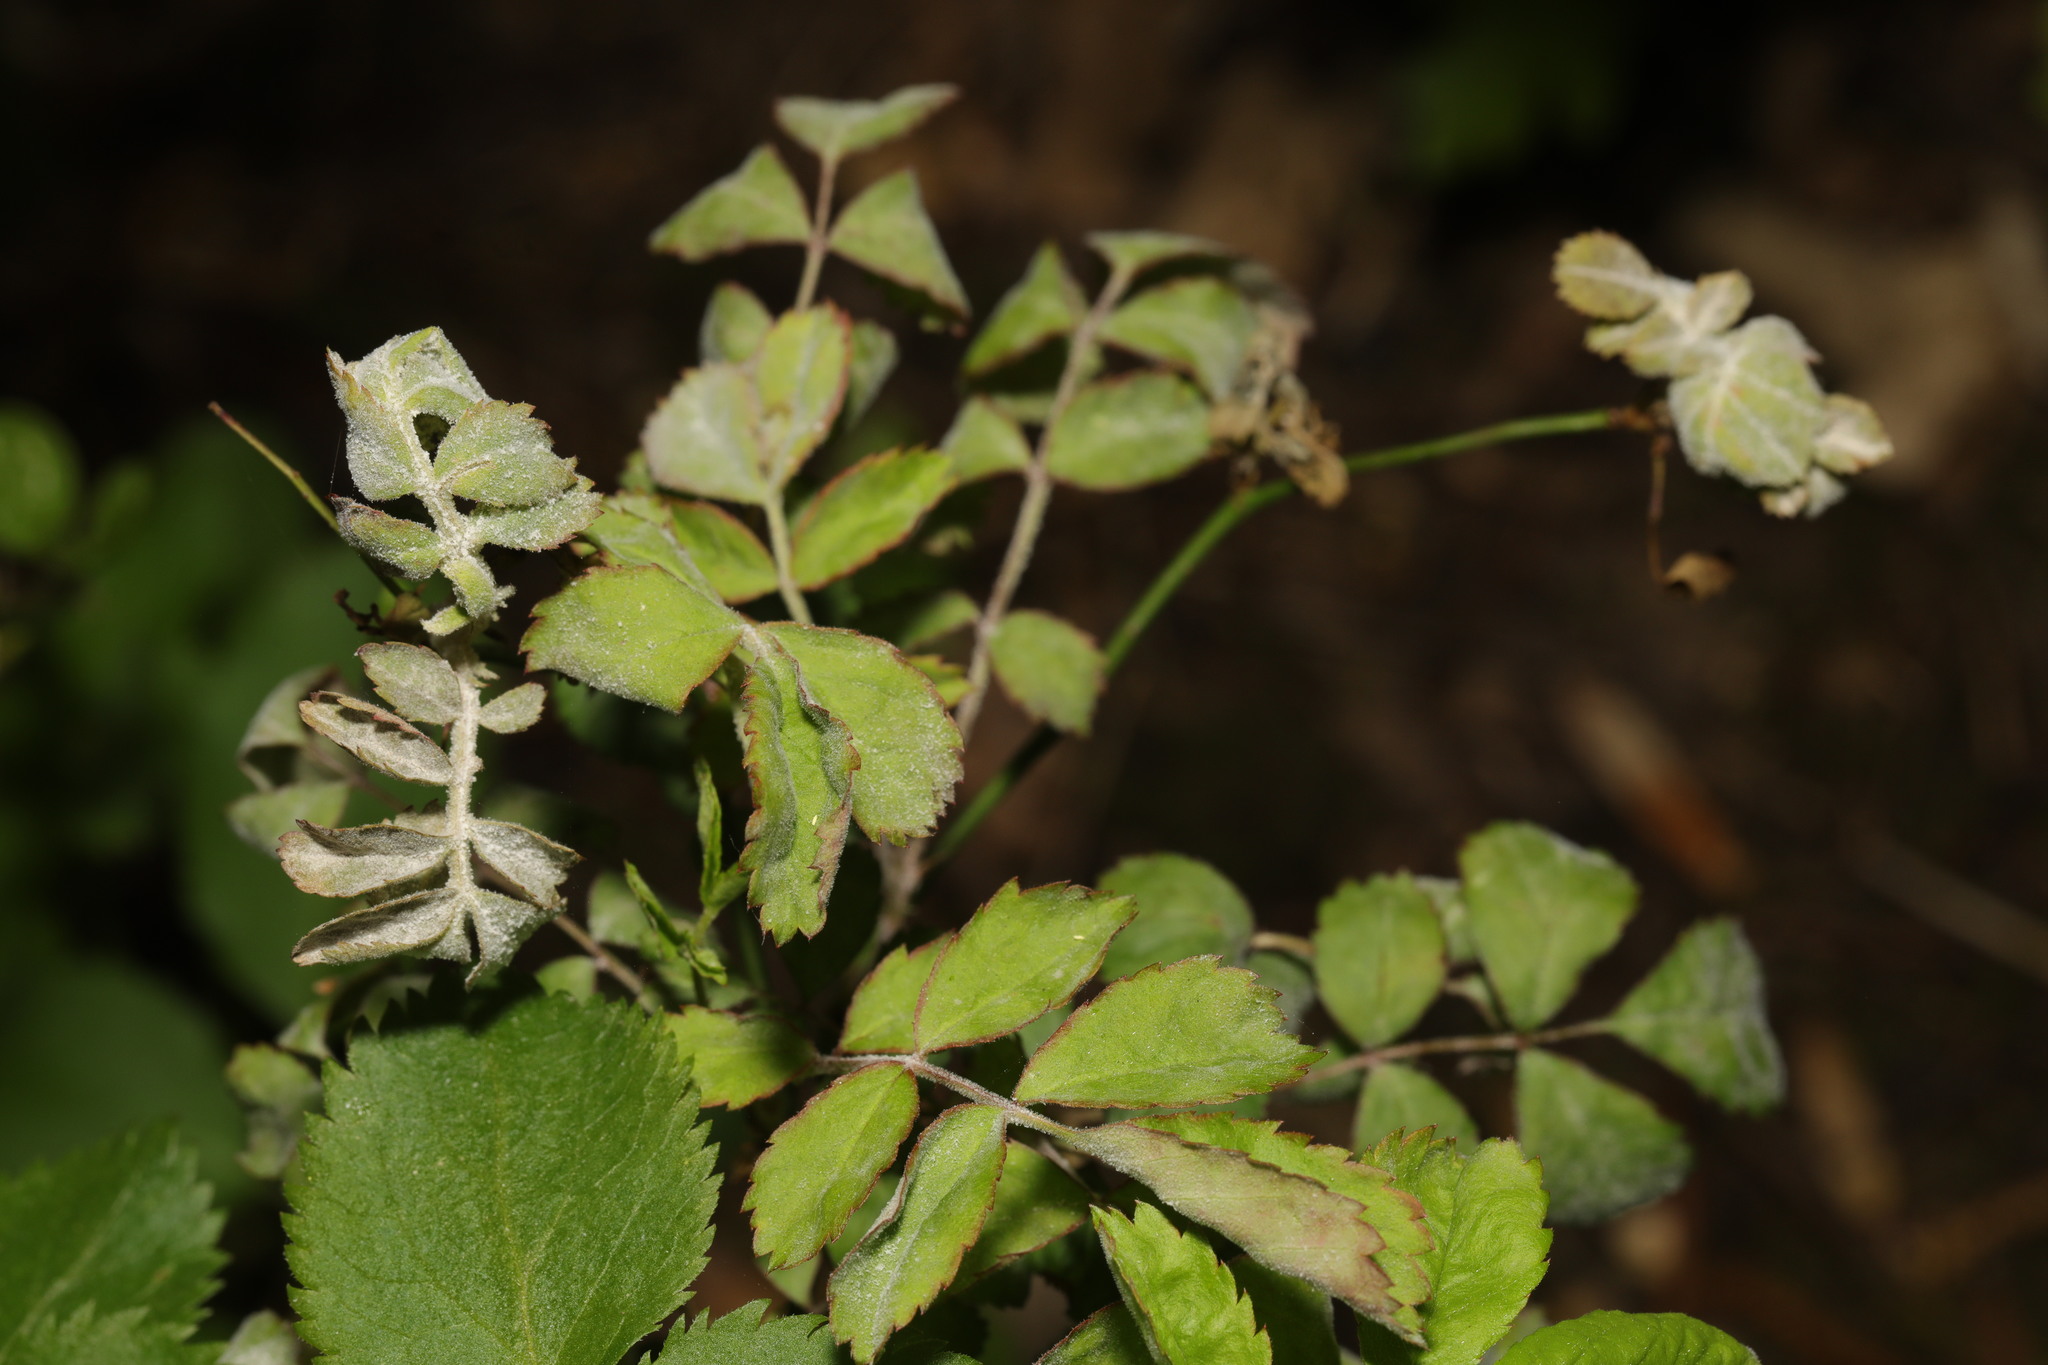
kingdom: Fungi
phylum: Ascomycota
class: Leotiomycetes
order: Helotiales
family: Erysiphaceae
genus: Podosphaera
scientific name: Podosphaera pannosa
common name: Rose mildew
